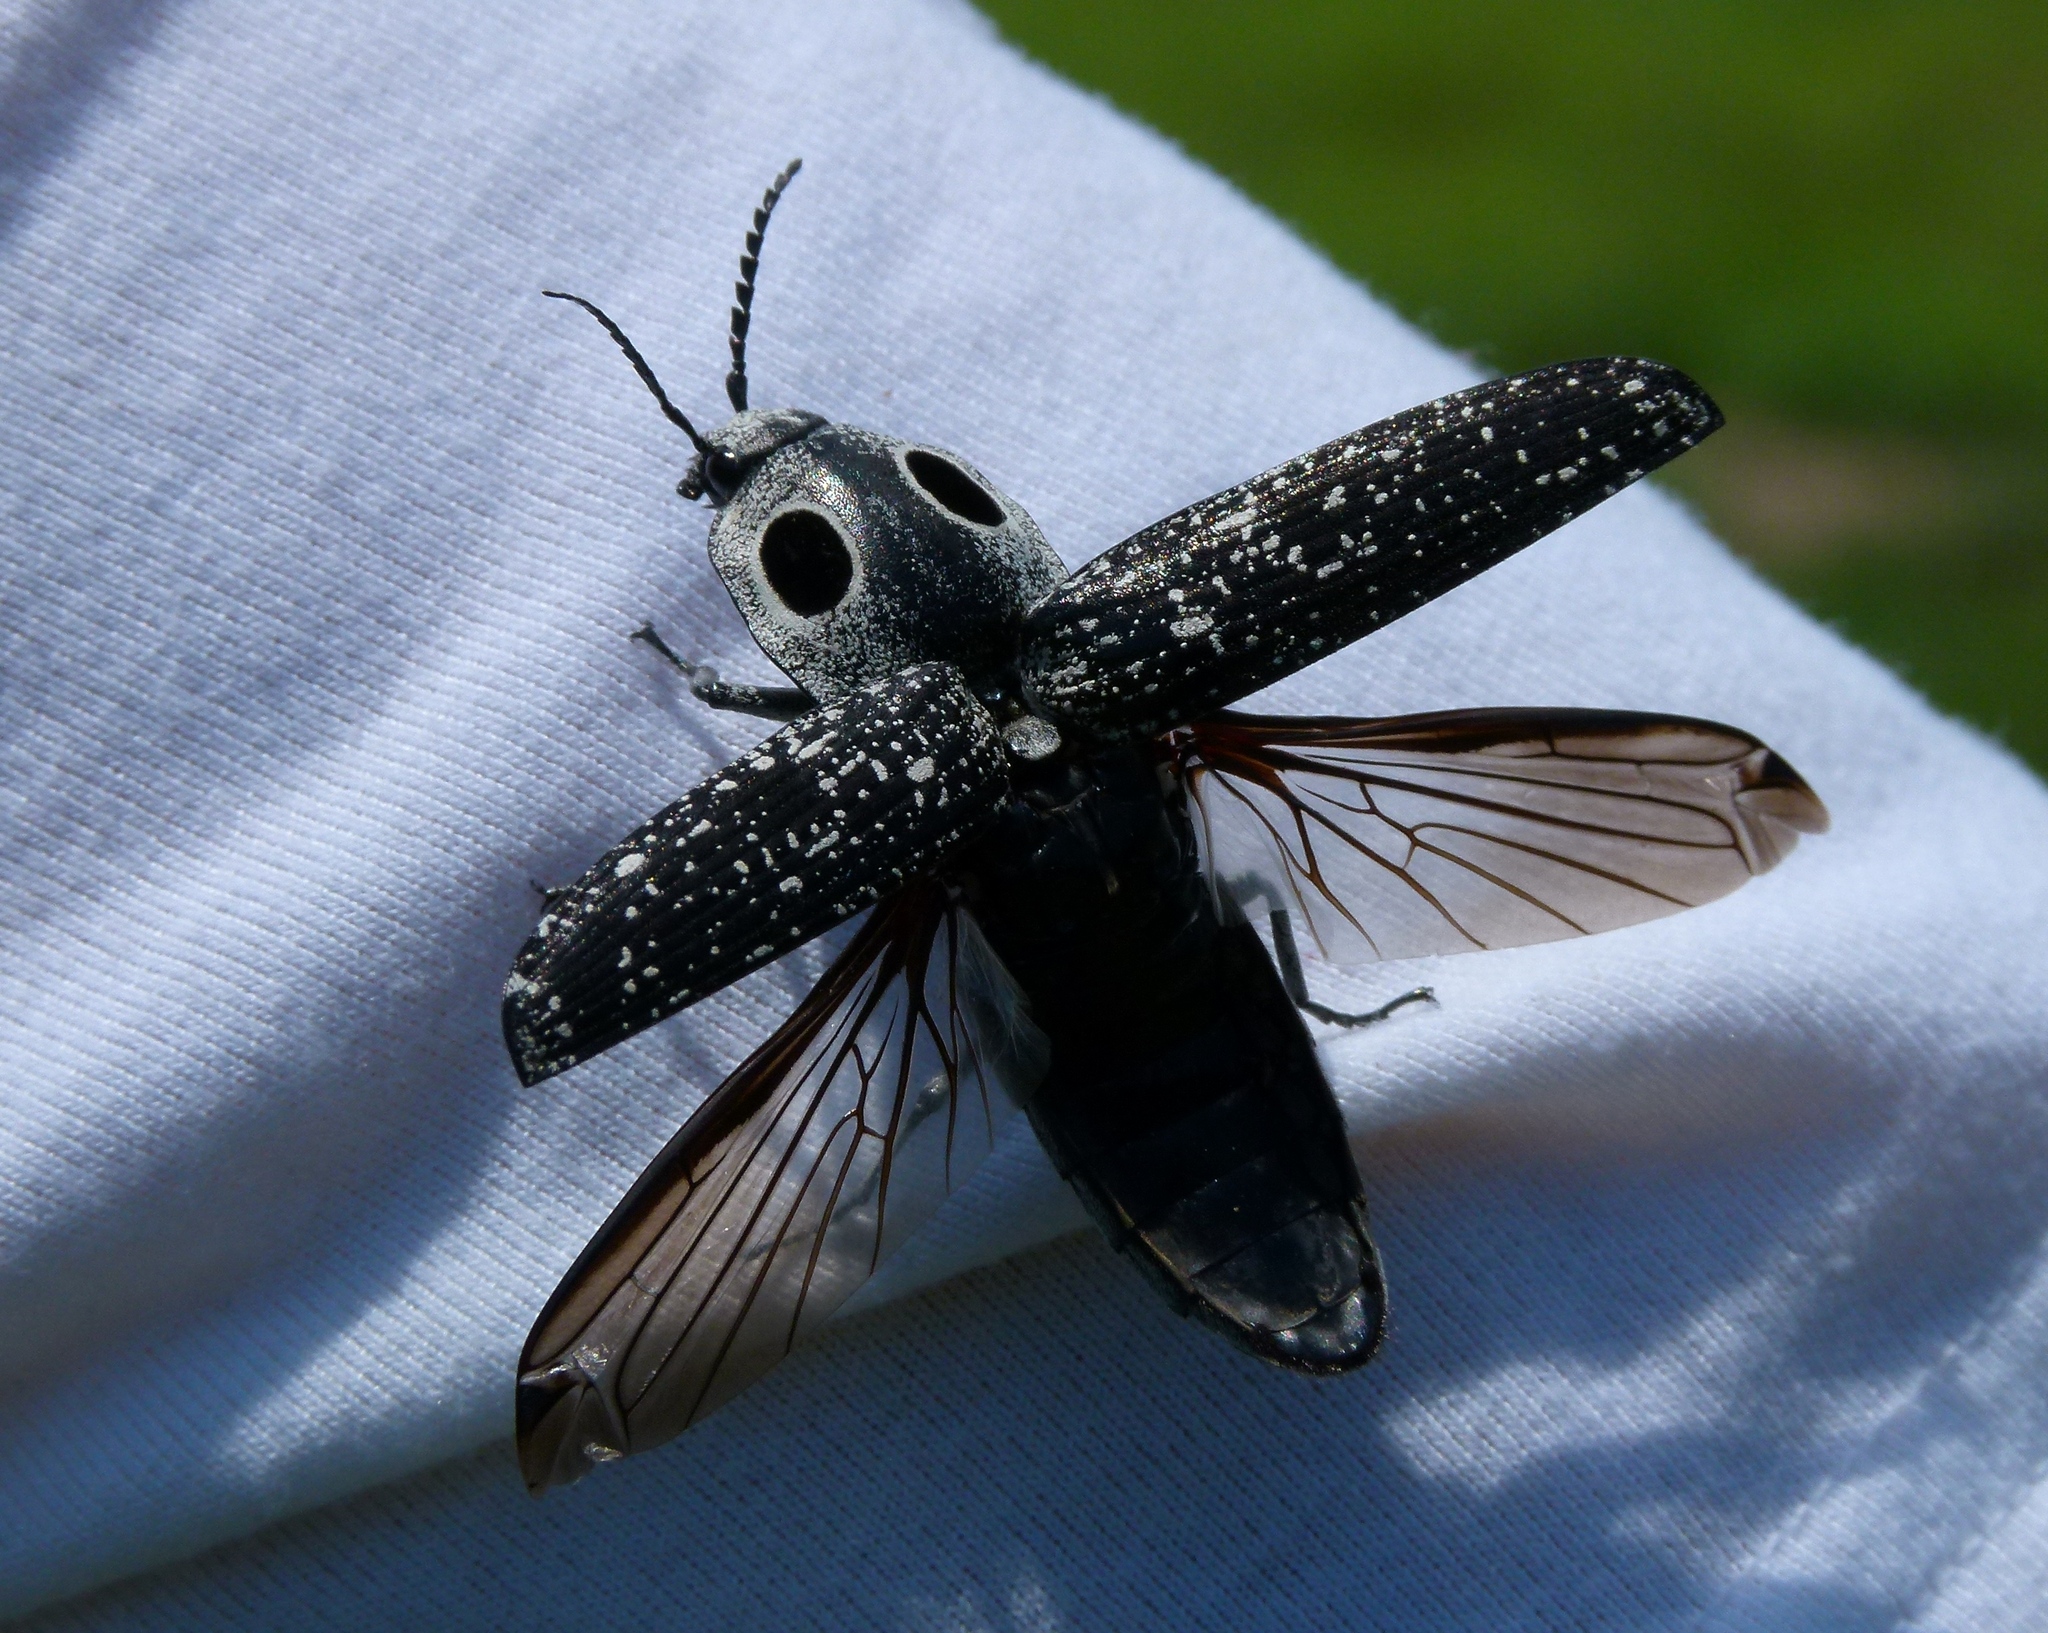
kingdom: Animalia
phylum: Arthropoda
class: Insecta
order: Coleoptera
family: Elateridae
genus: Alaus
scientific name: Alaus oculatus
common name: Eastern eyed click beetle
